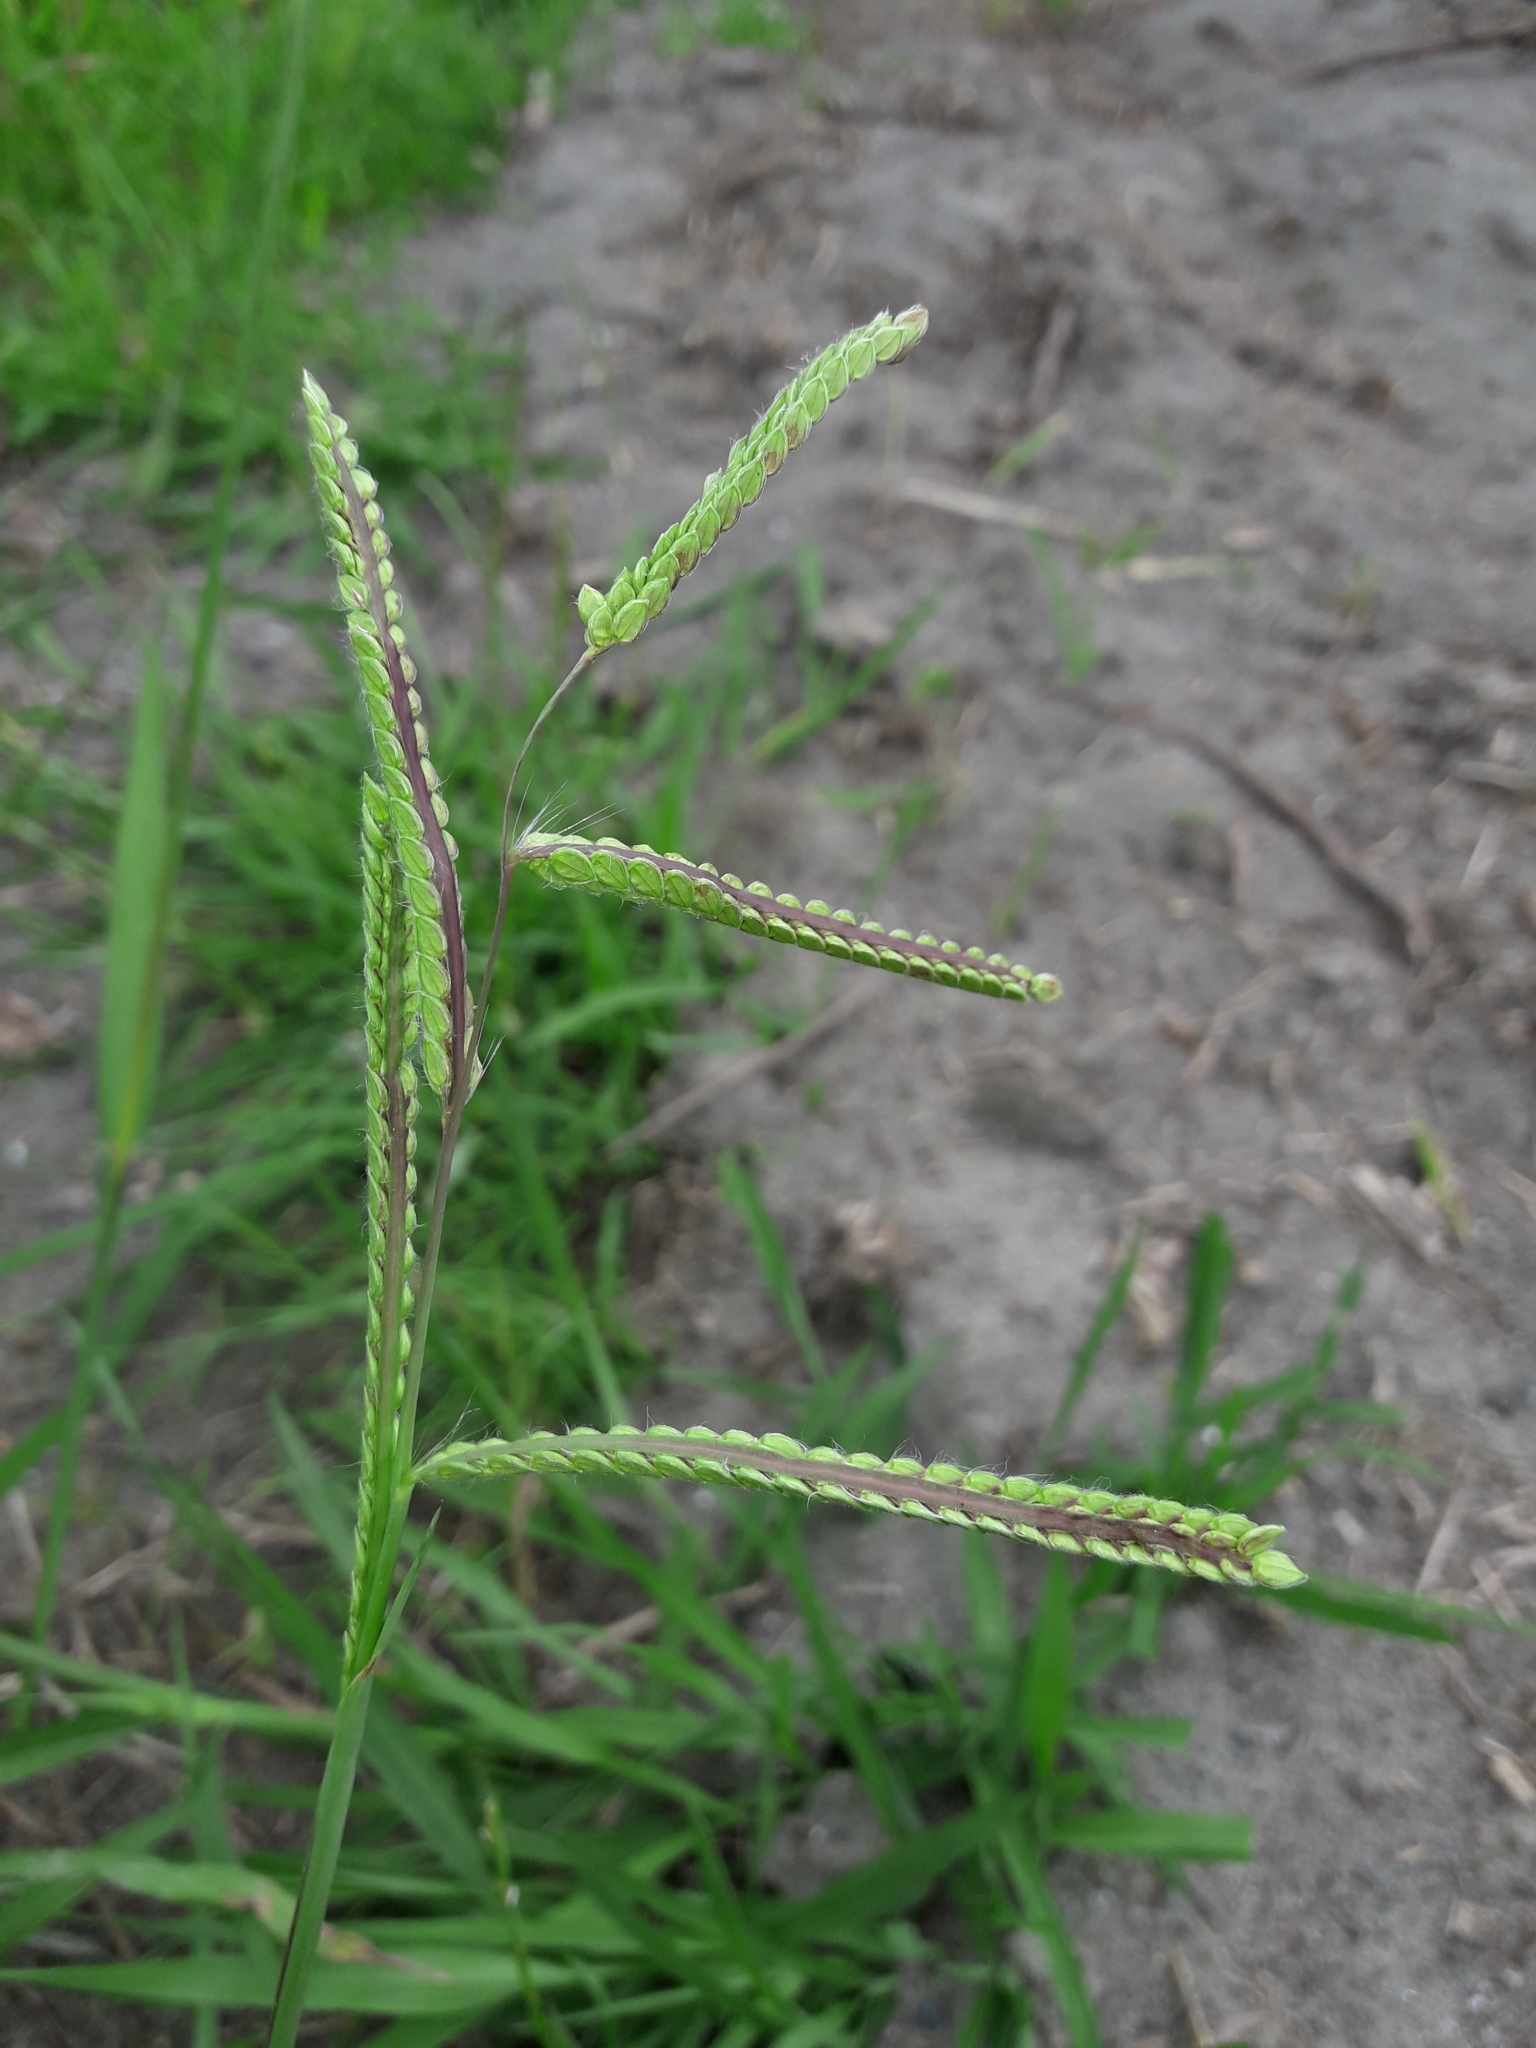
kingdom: Plantae
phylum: Tracheophyta
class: Liliopsida
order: Poales
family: Poaceae
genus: Paspalum
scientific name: Paspalum dilatatum
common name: Dallisgrass
